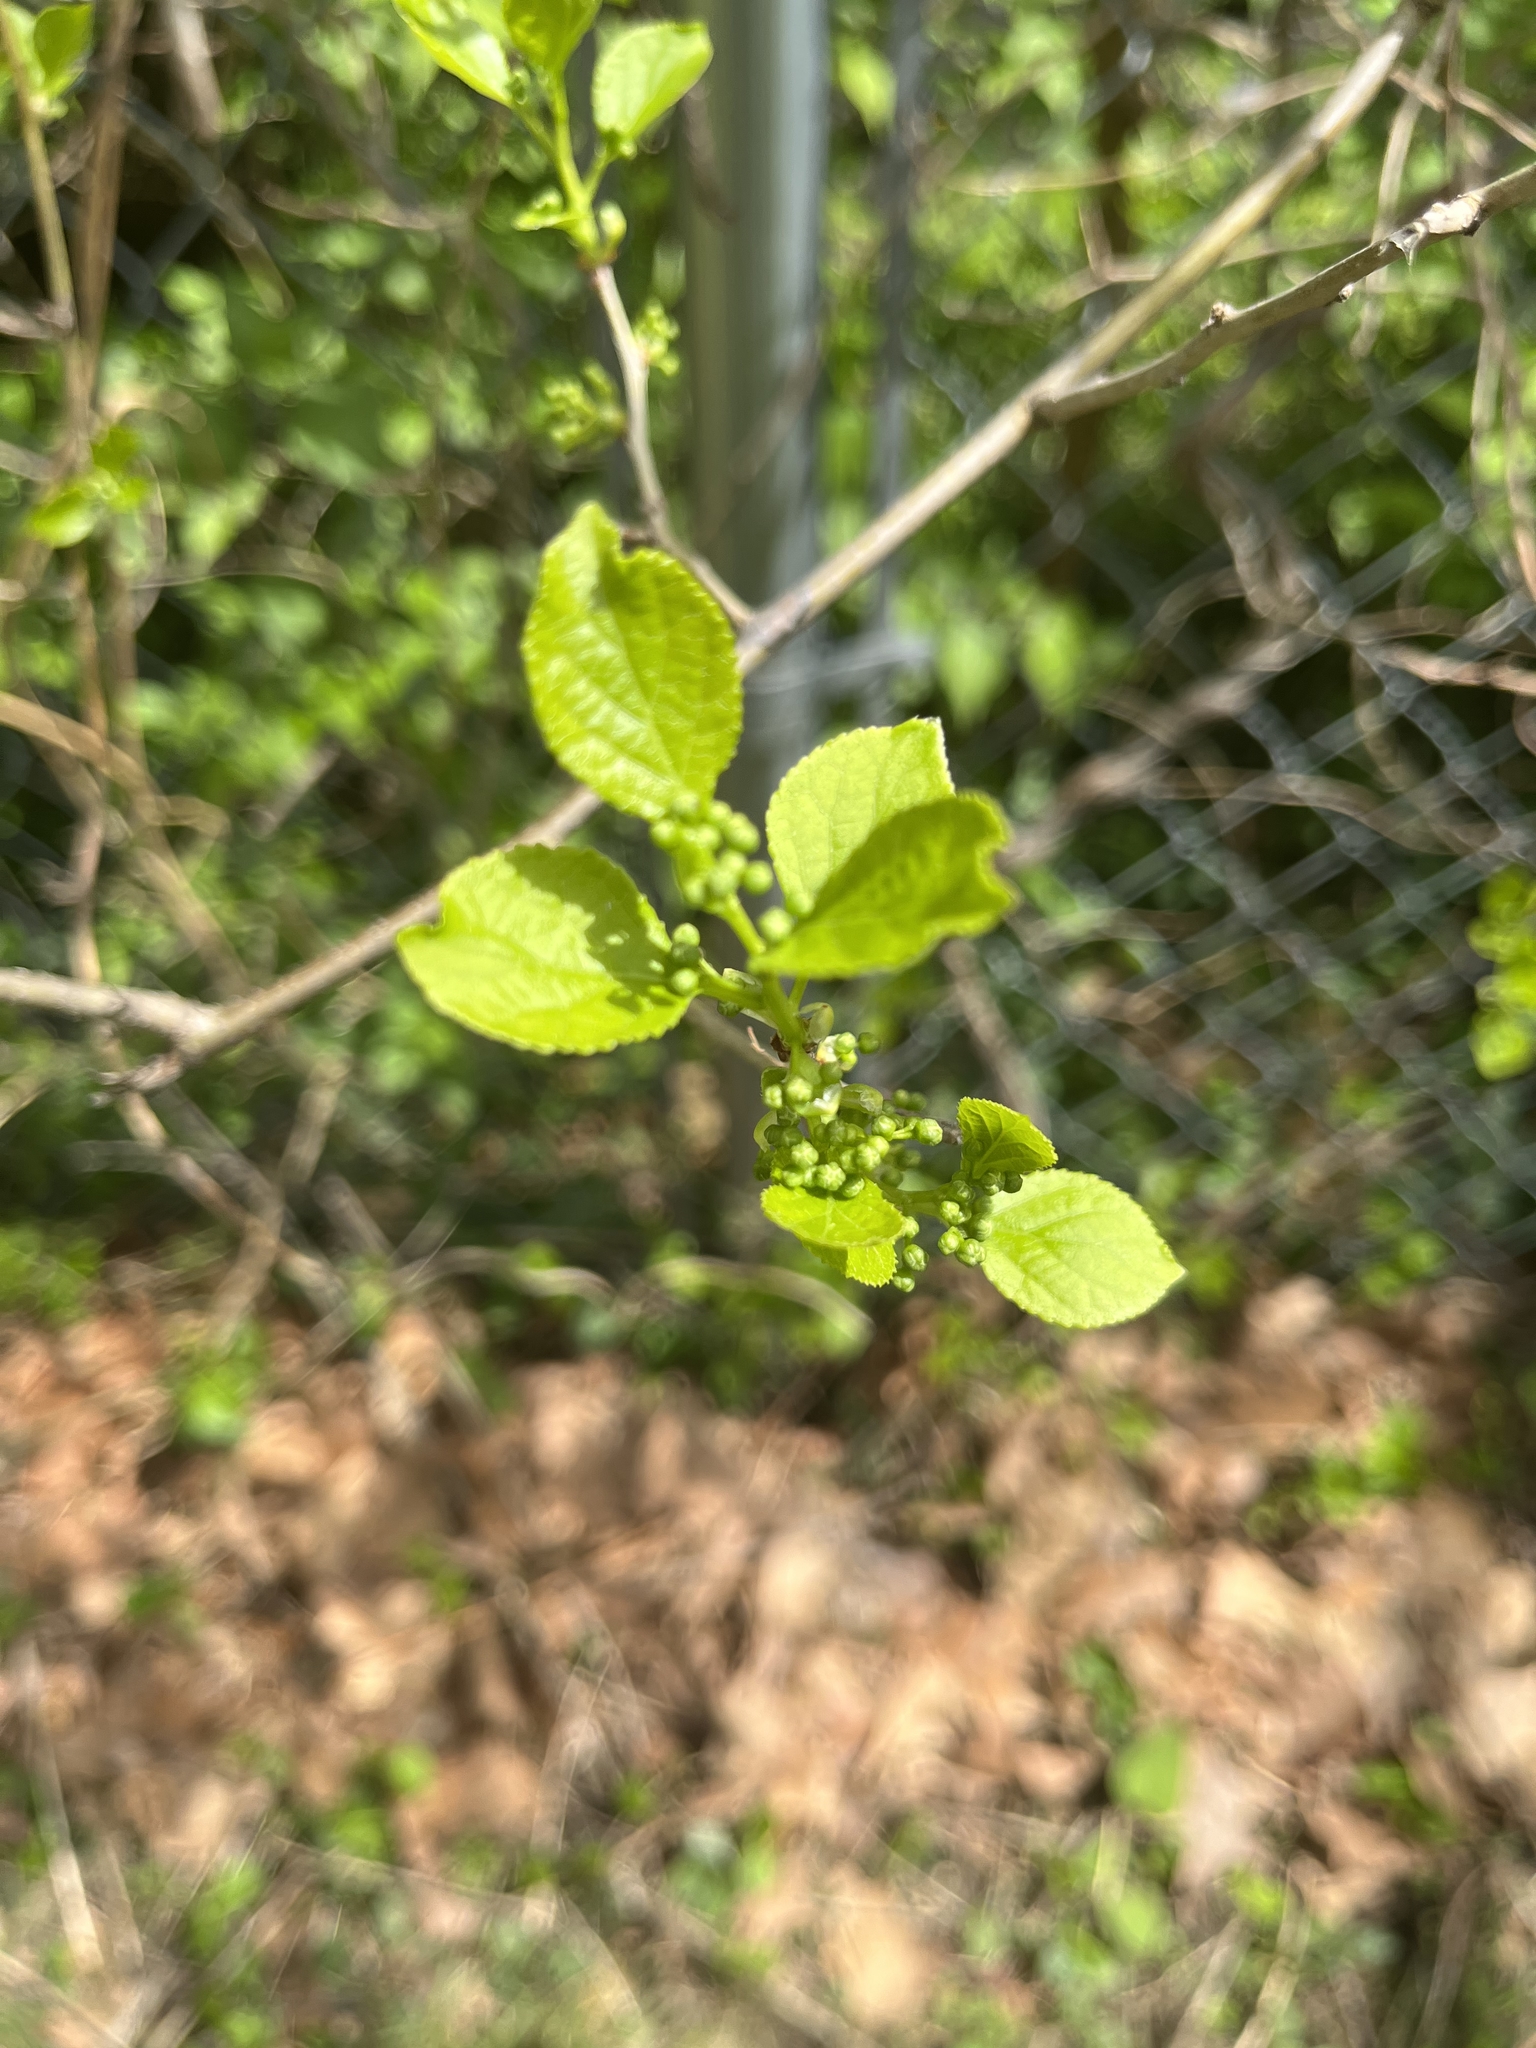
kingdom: Plantae
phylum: Tracheophyta
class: Magnoliopsida
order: Celastrales
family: Celastraceae
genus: Celastrus
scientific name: Celastrus orbiculatus
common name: Oriental bittersweet
